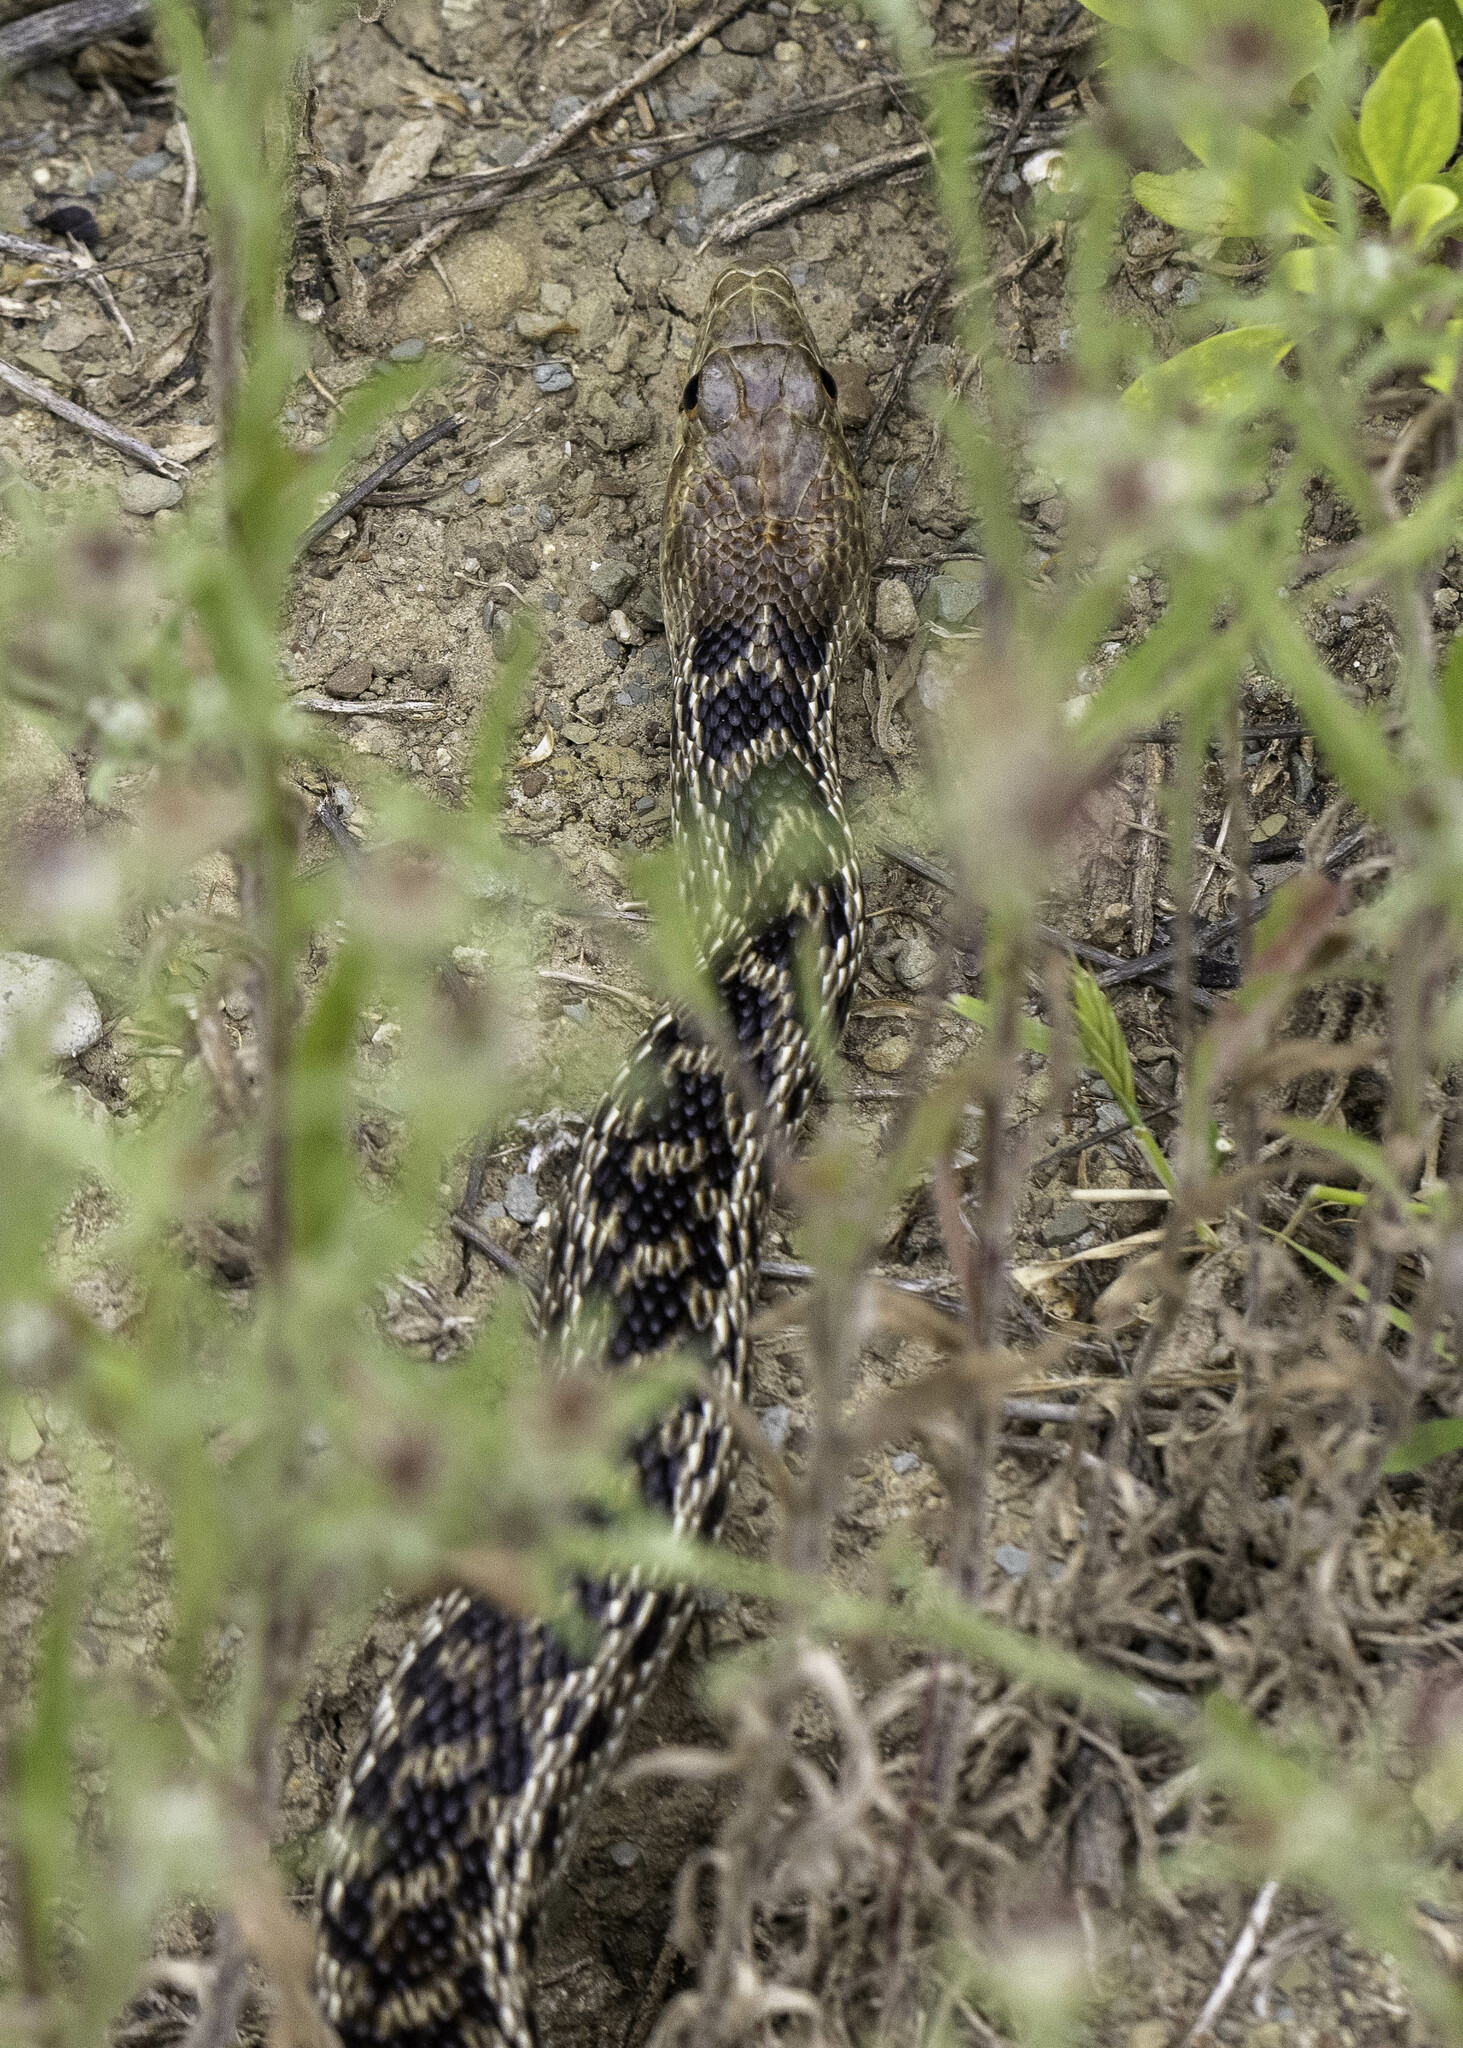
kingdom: Animalia
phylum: Chordata
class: Squamata
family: Colubridae
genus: Pituophis
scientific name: Pituophis catenifer
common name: Gopher snake
